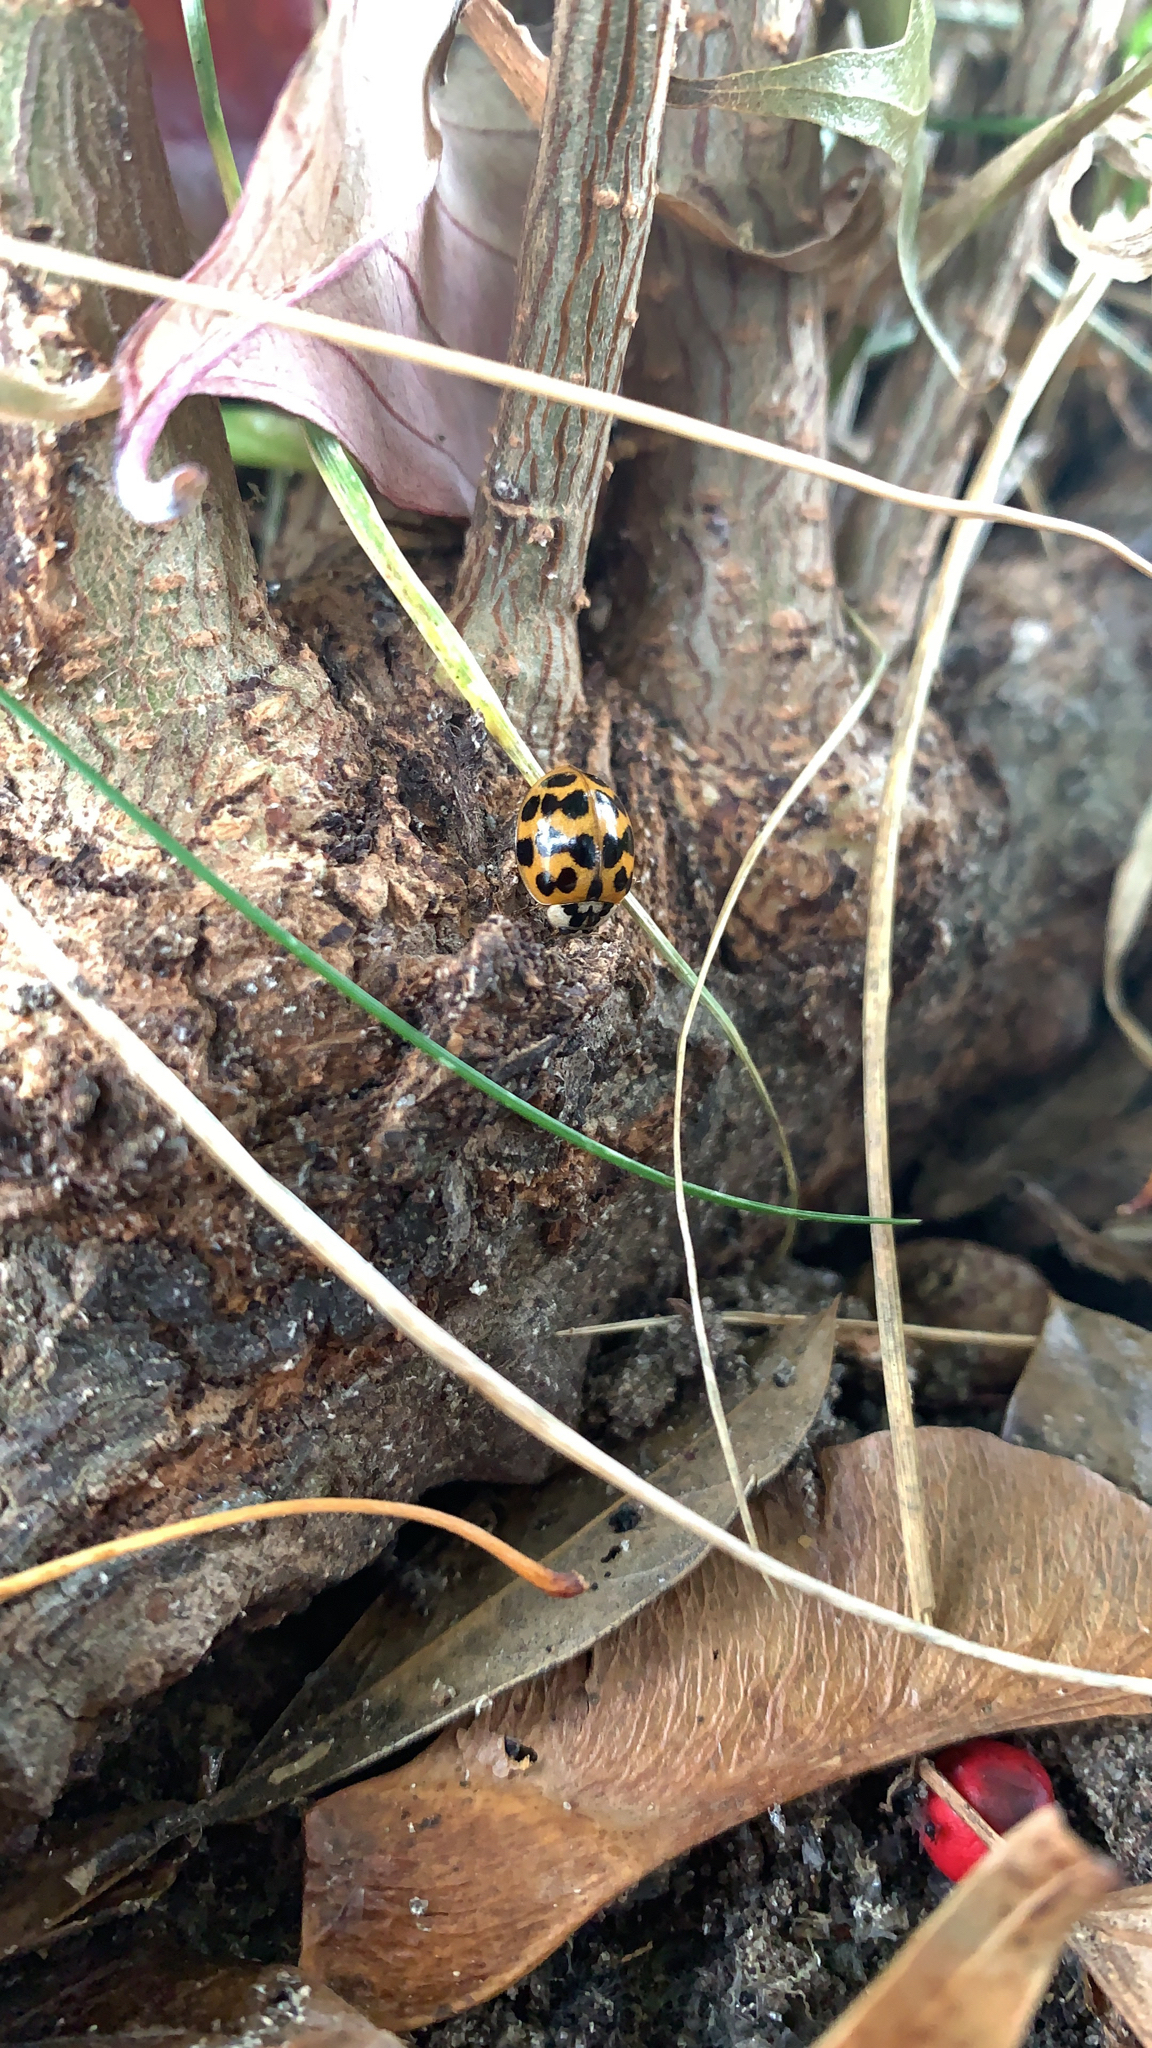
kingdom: Animalia
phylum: Arthropoda
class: Insecta
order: Coleoptera
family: Coccinellidae
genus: Harmonia
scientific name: Harmonia axyridis
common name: Harlequin ladybird
